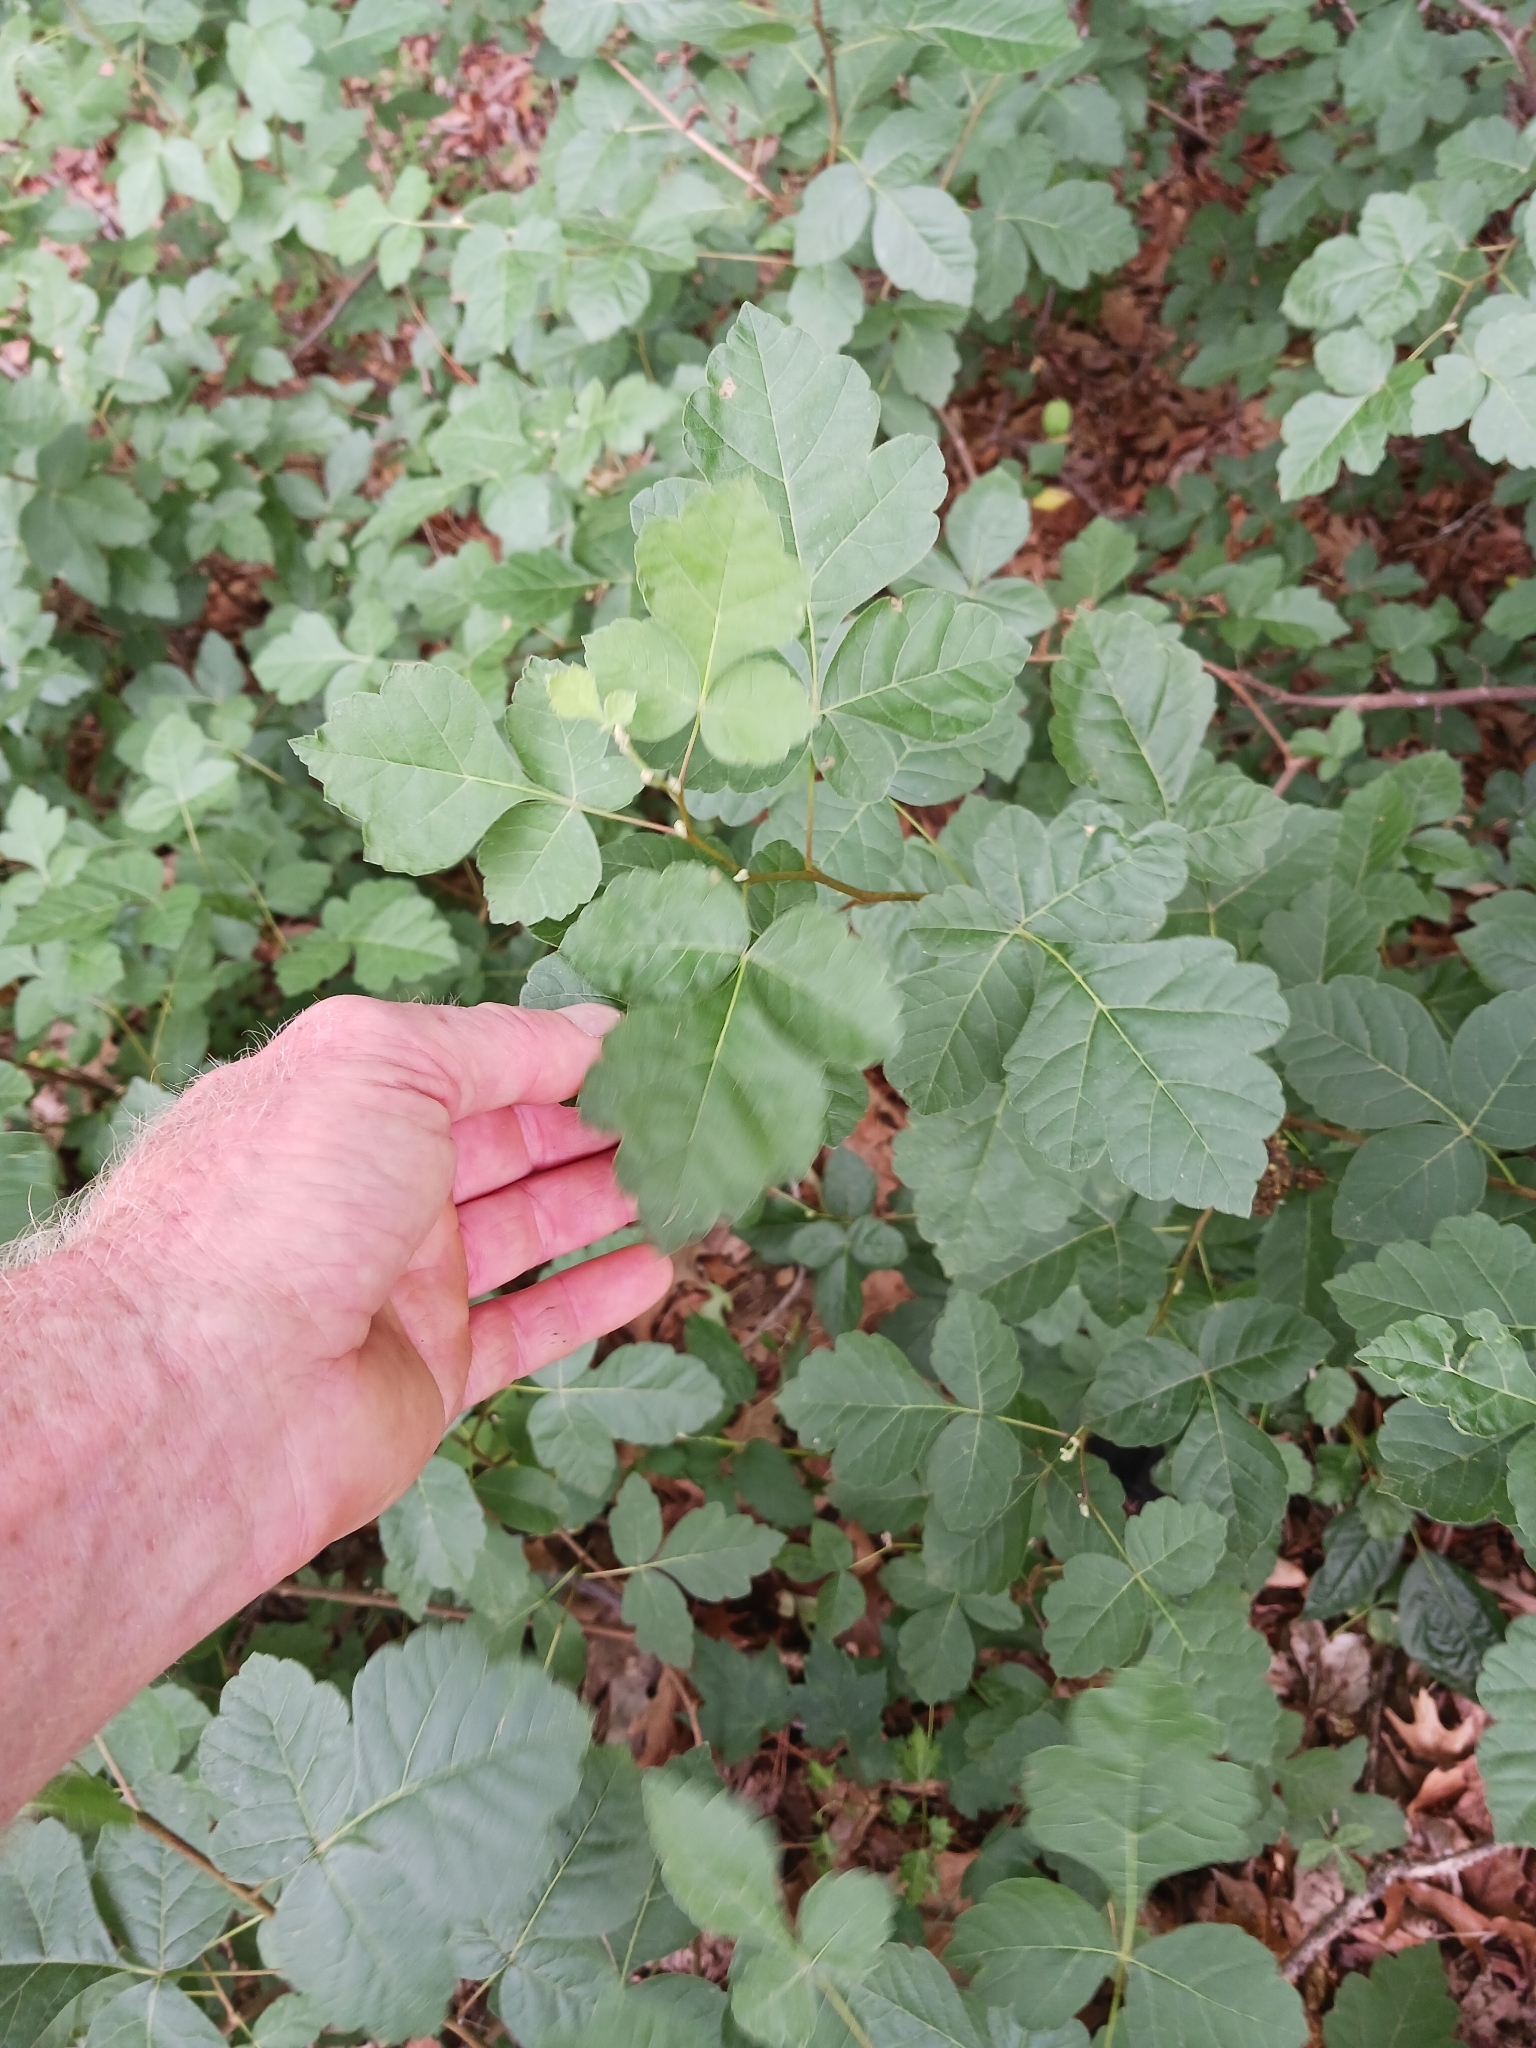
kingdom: Plantae
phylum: Tracheophyta
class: Magnoliopsida
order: Sapindales
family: Anacardiaceae
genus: Rhus
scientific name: Rhus aromatica
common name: Aromatic sumac
